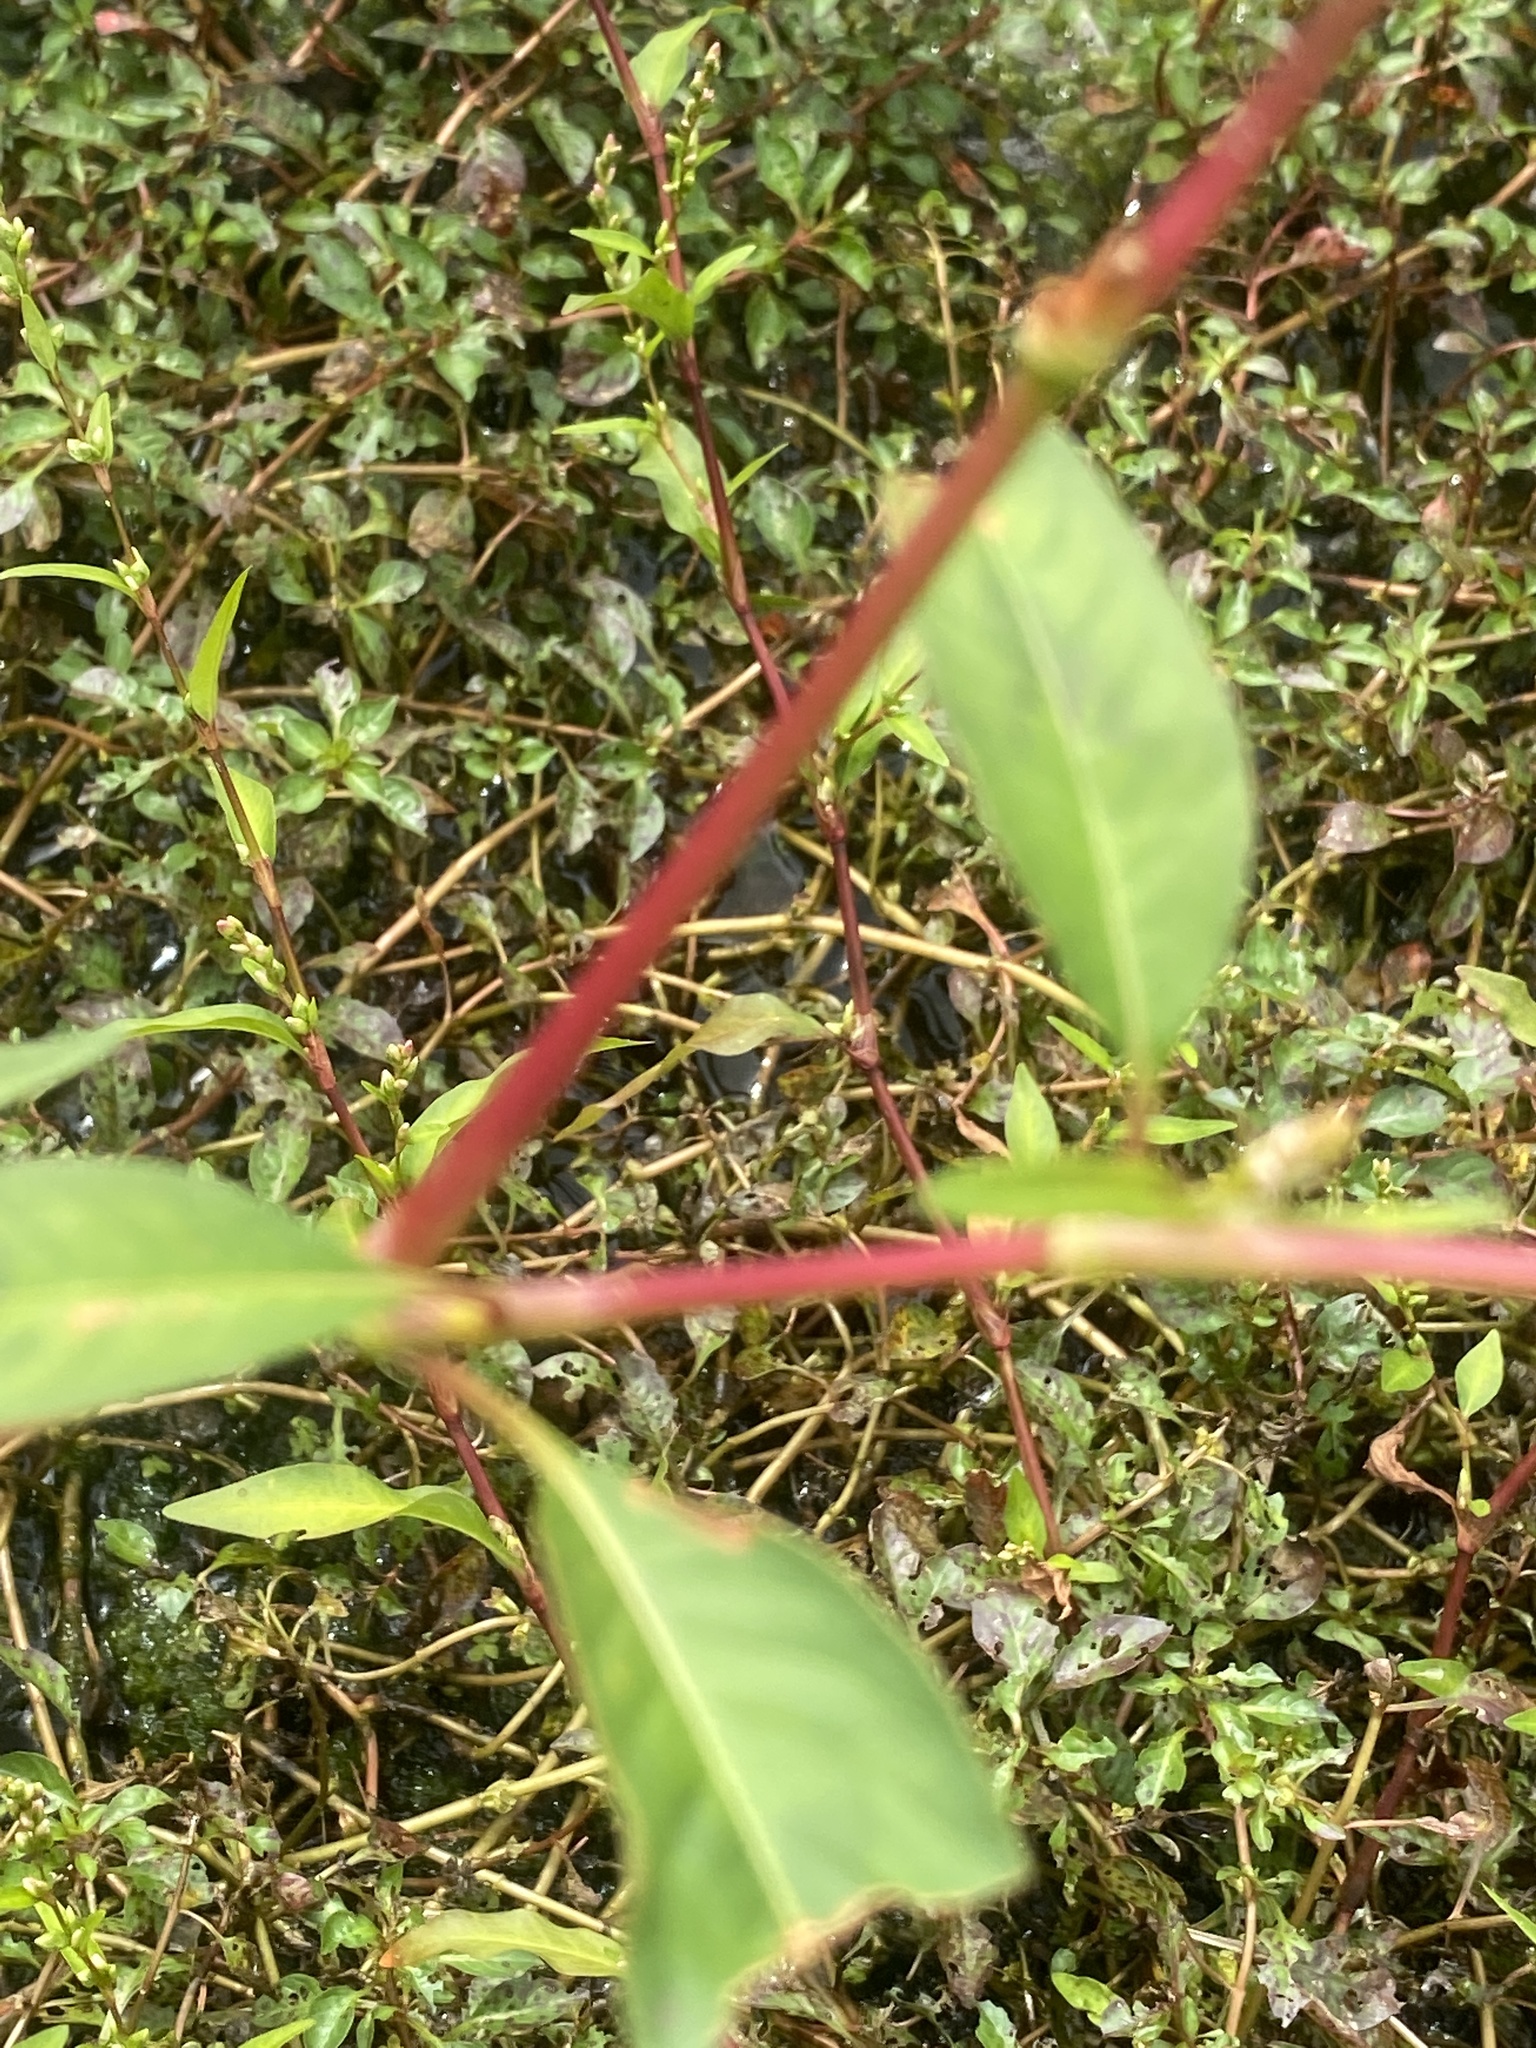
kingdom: Plantae
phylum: Tracheophyta
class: Magnoliopsida
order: Caryophyllales
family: Polygonaceae
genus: Persicaria
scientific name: Persicaria pensylvanica
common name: Pinkweed
